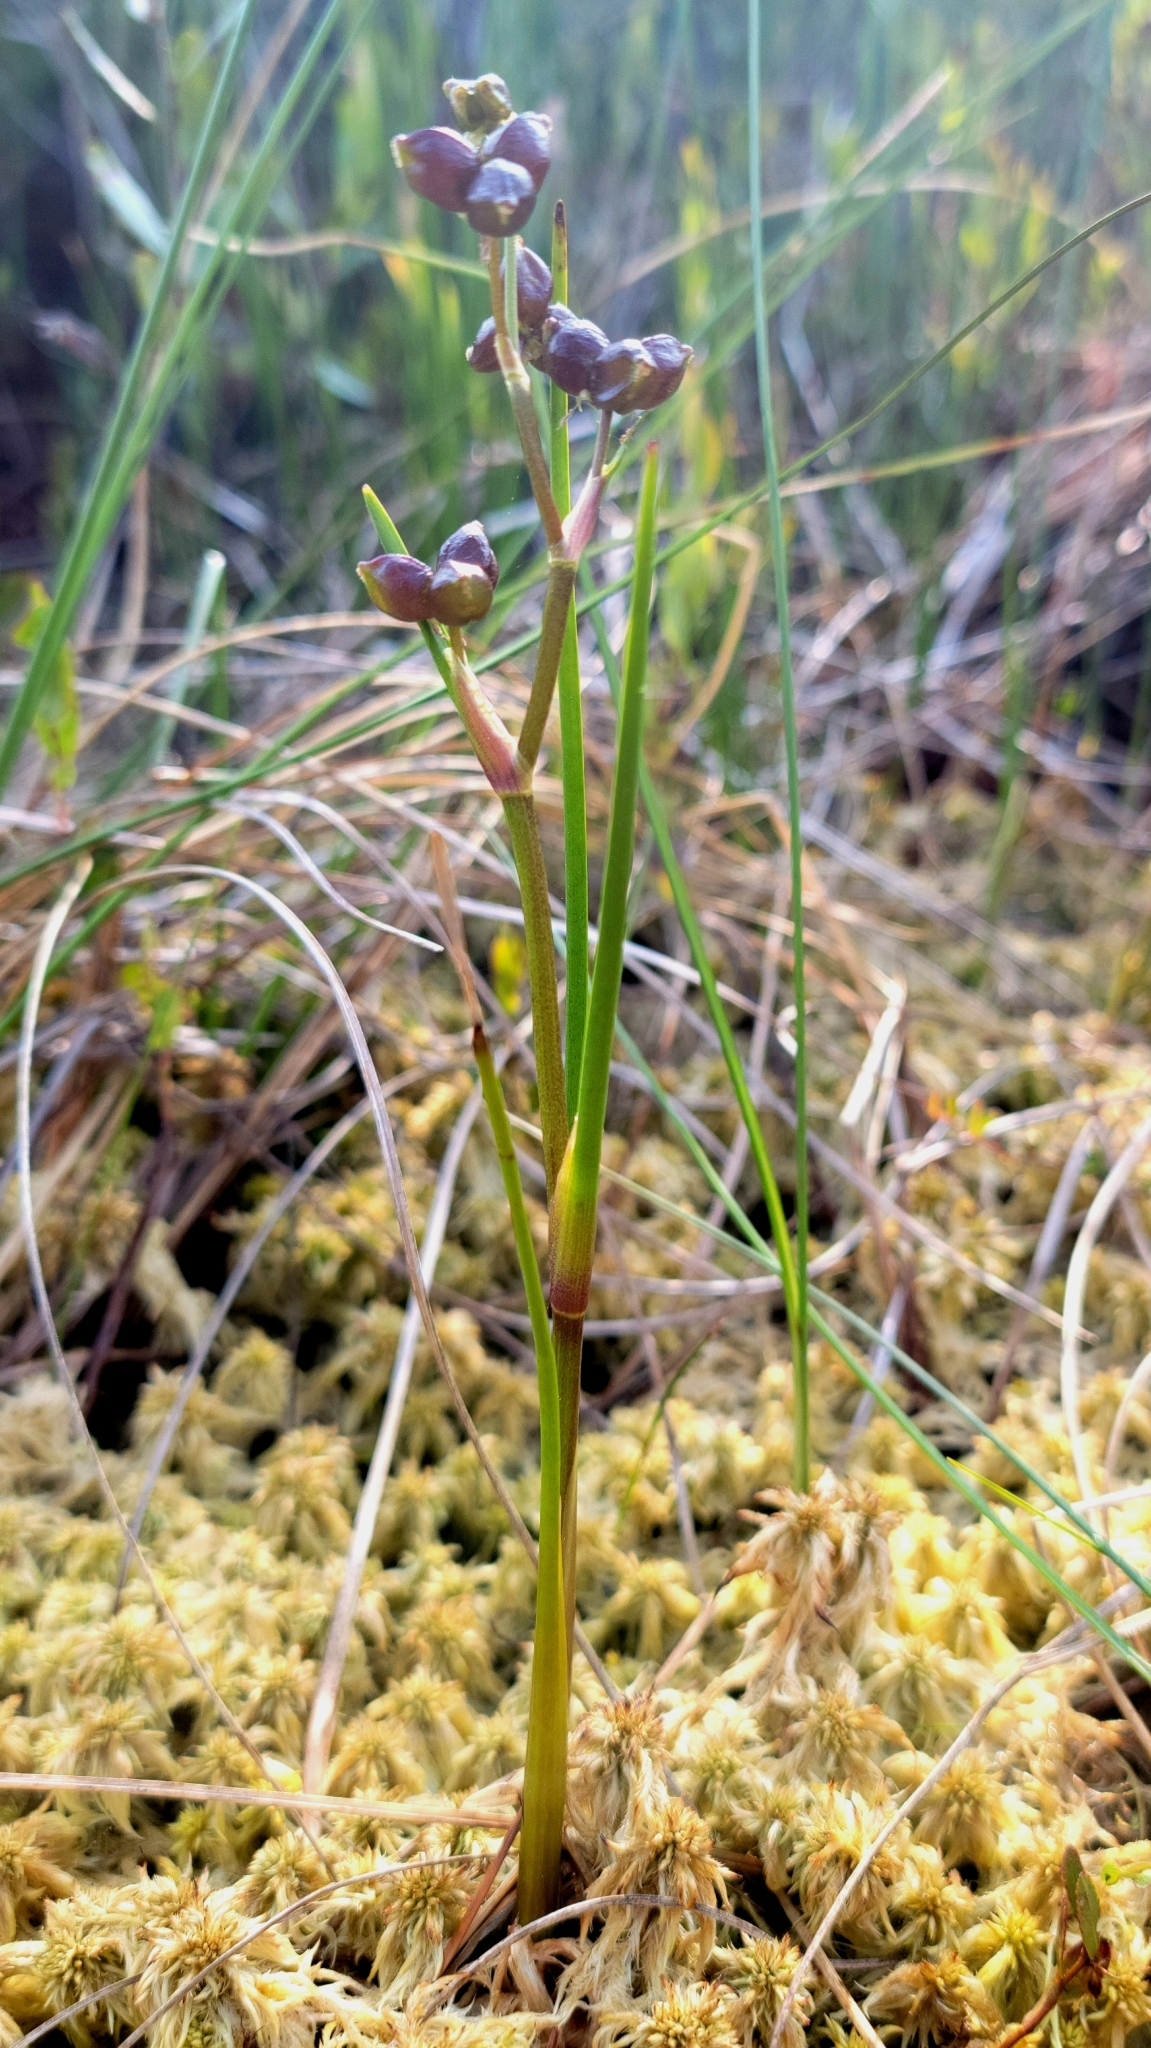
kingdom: Plantae
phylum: Tracheophyta
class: Liliopsida
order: Alismatales
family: Scheuchzeriaceae
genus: Scheuchzeria
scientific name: Scheuchzeria palustris
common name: Rannoch-rush
